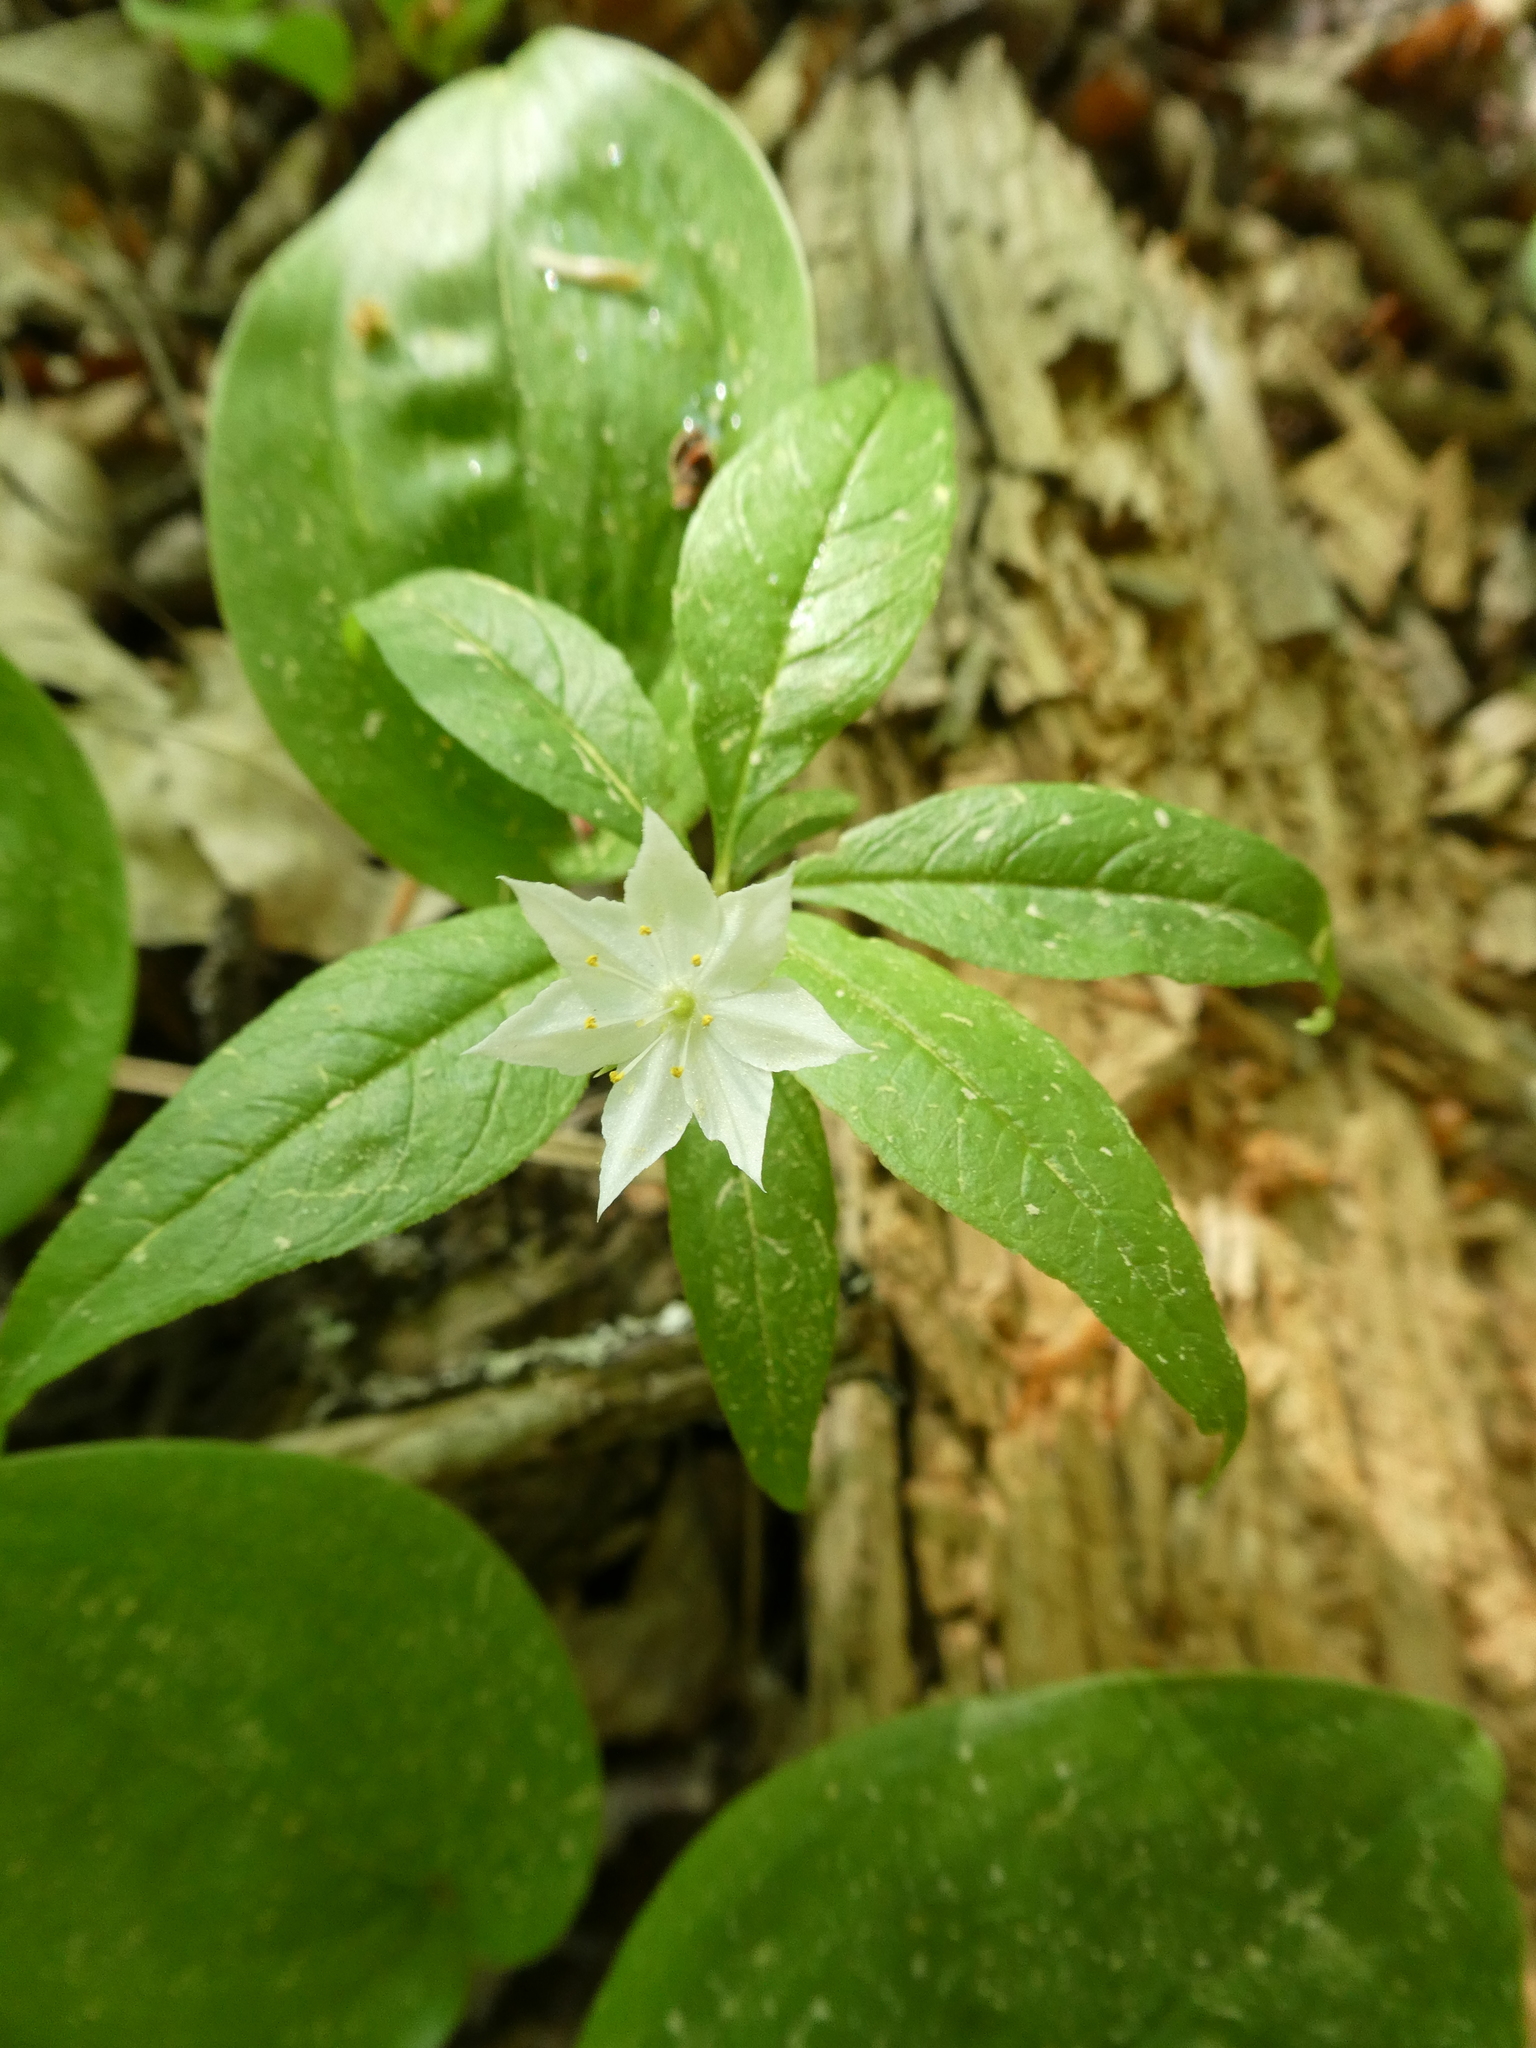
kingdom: Plantae
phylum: Tracheophyta
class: Magnoliopsida
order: Ericales
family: Primulaceae
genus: Lysimachia
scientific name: Lysimachia borealis
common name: American starflower
